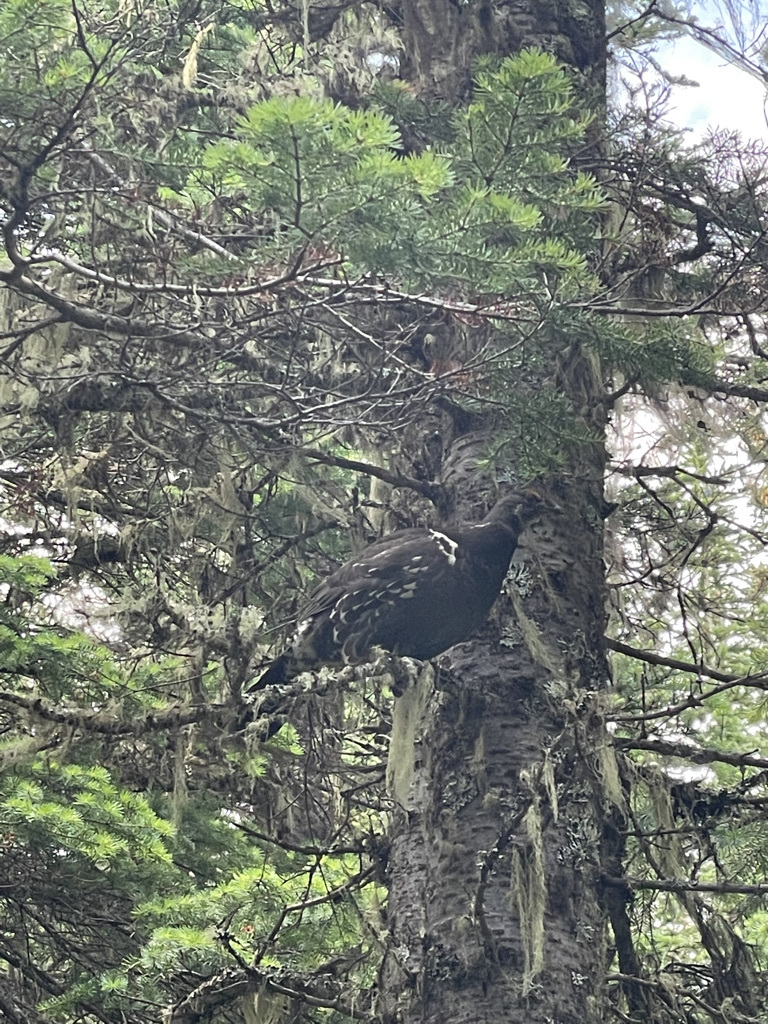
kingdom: Animalia
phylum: Chordata
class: Aves
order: Galliformes
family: Phasianidae
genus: Dendragapus
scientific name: Dendragapus obscurus
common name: Dusky grouse
